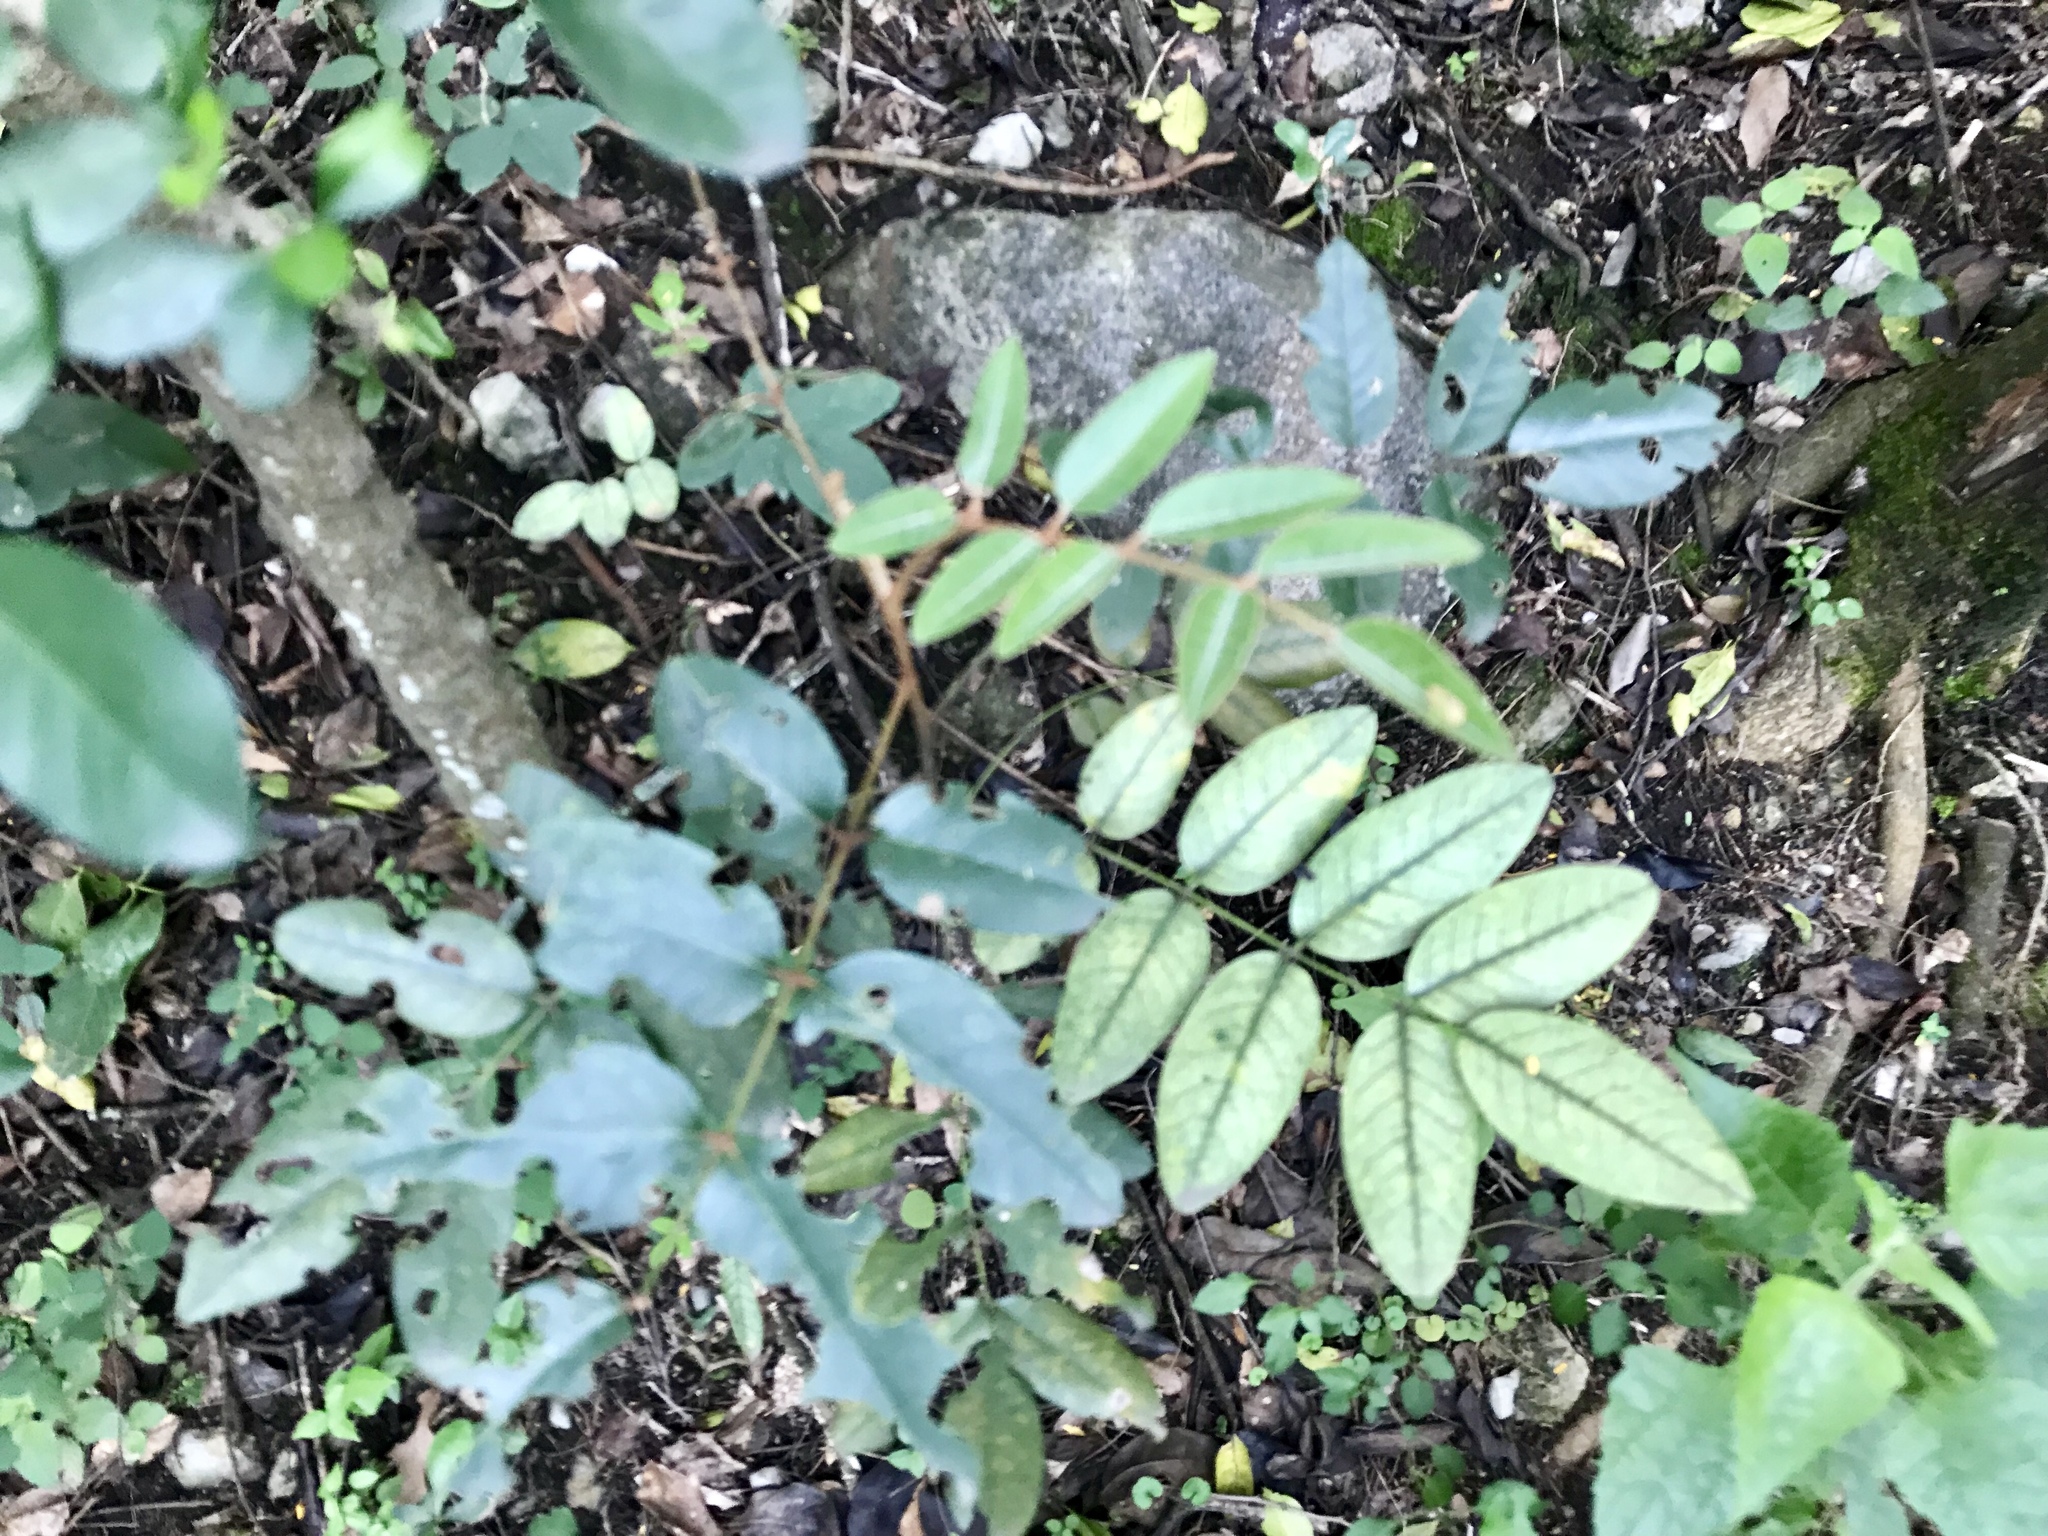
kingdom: Plantae
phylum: Tracheophyta
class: Magnoliopsida
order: Sapindales
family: Rutaceae
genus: Decatropis
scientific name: Decatropis bicolor
